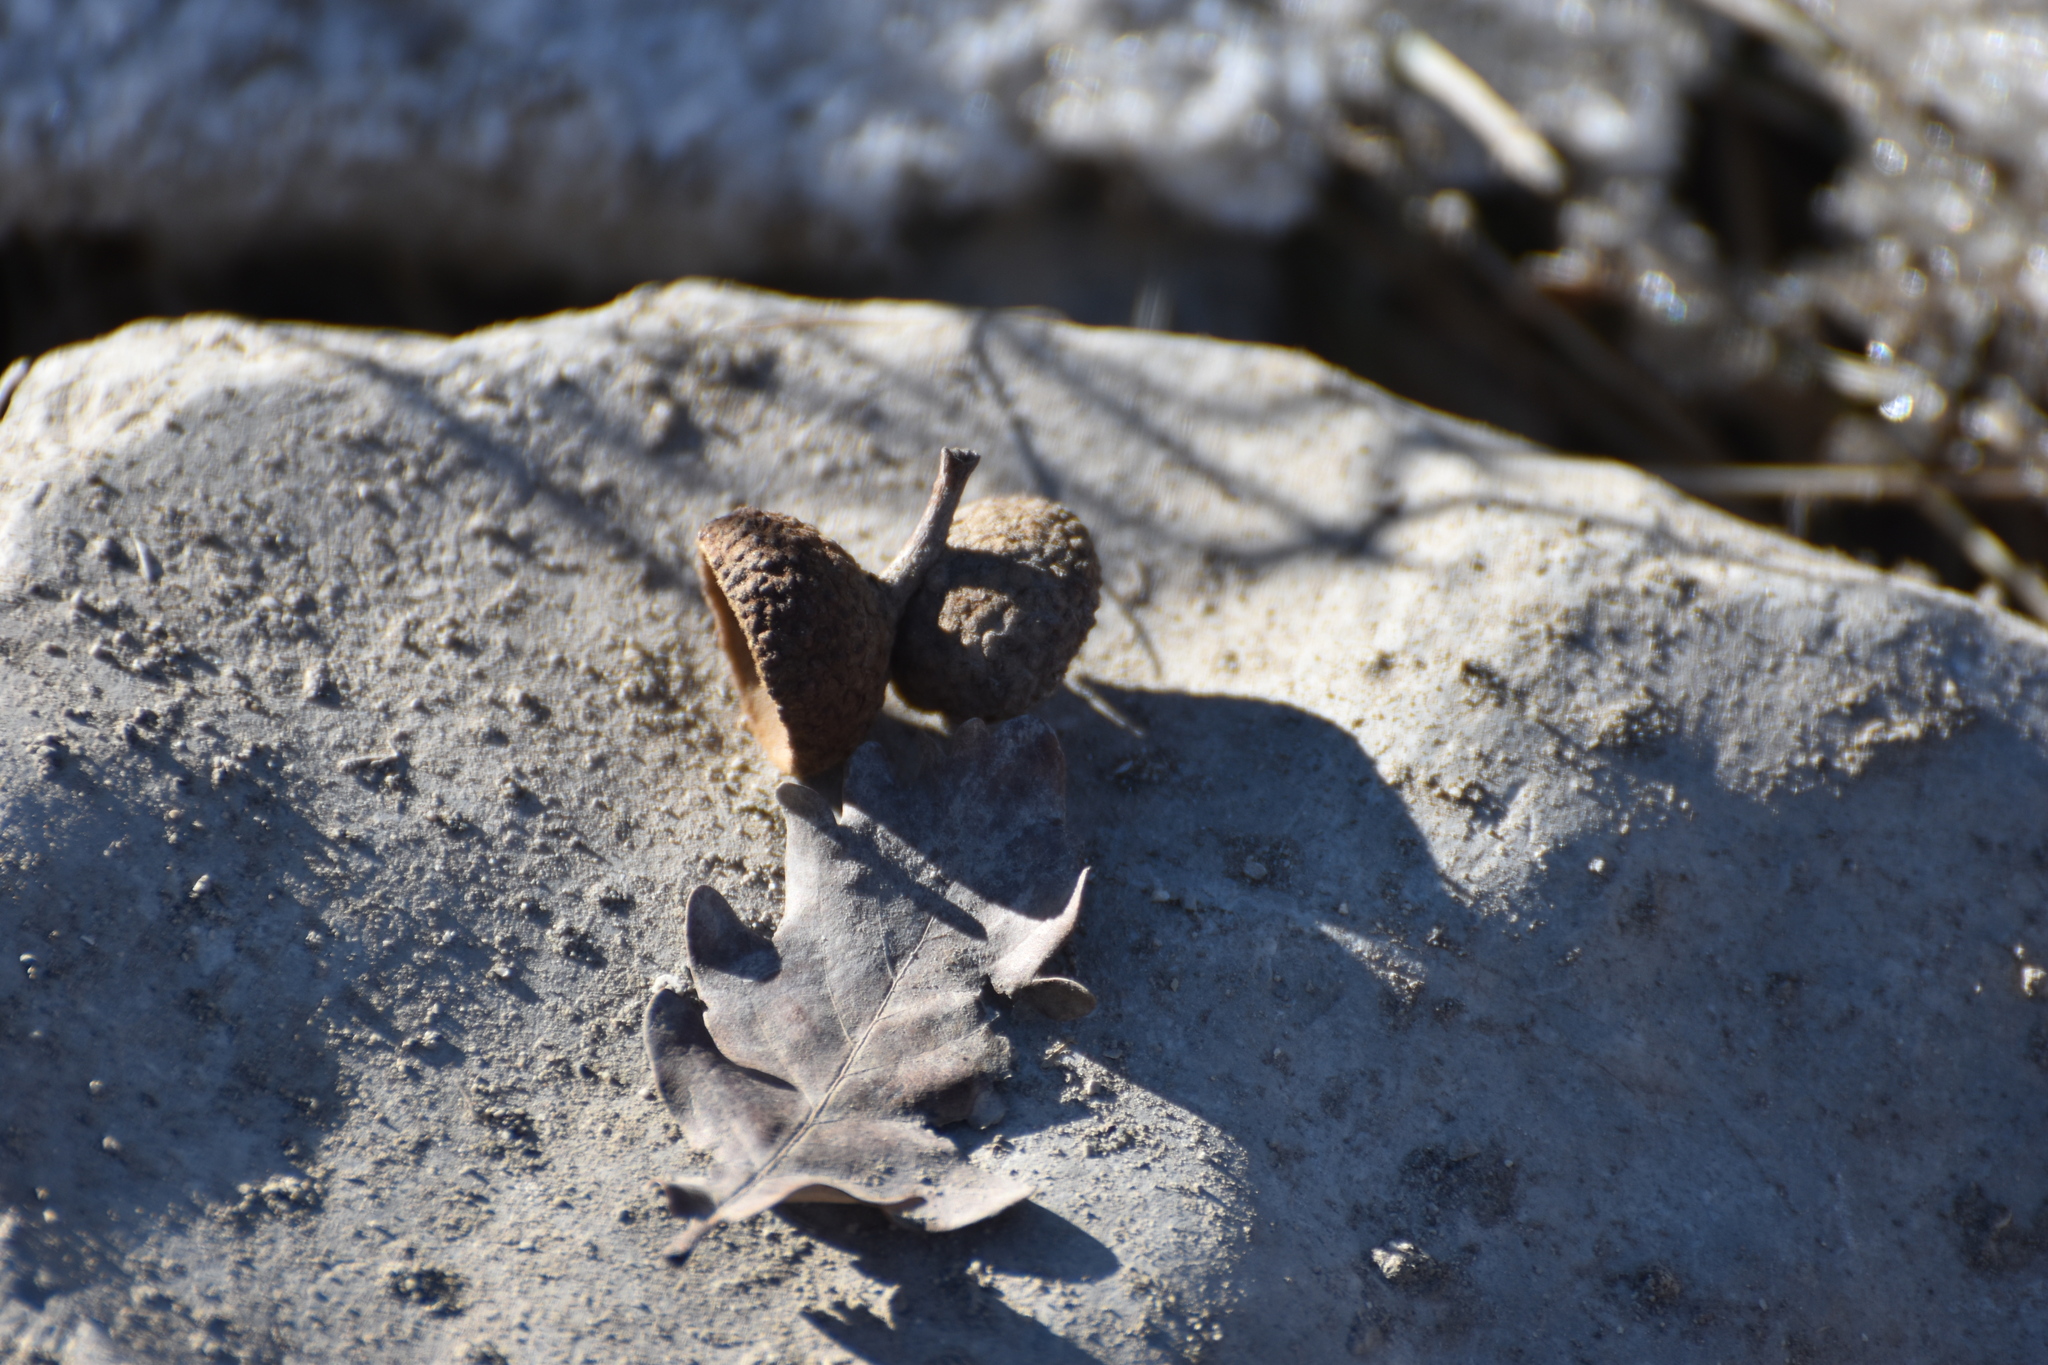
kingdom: Plantae
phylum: Tracheophyta
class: Magnoliopsida
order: Fagales
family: Fagaceae
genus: Quercus
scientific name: Quercus petraea
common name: Sessile oak
